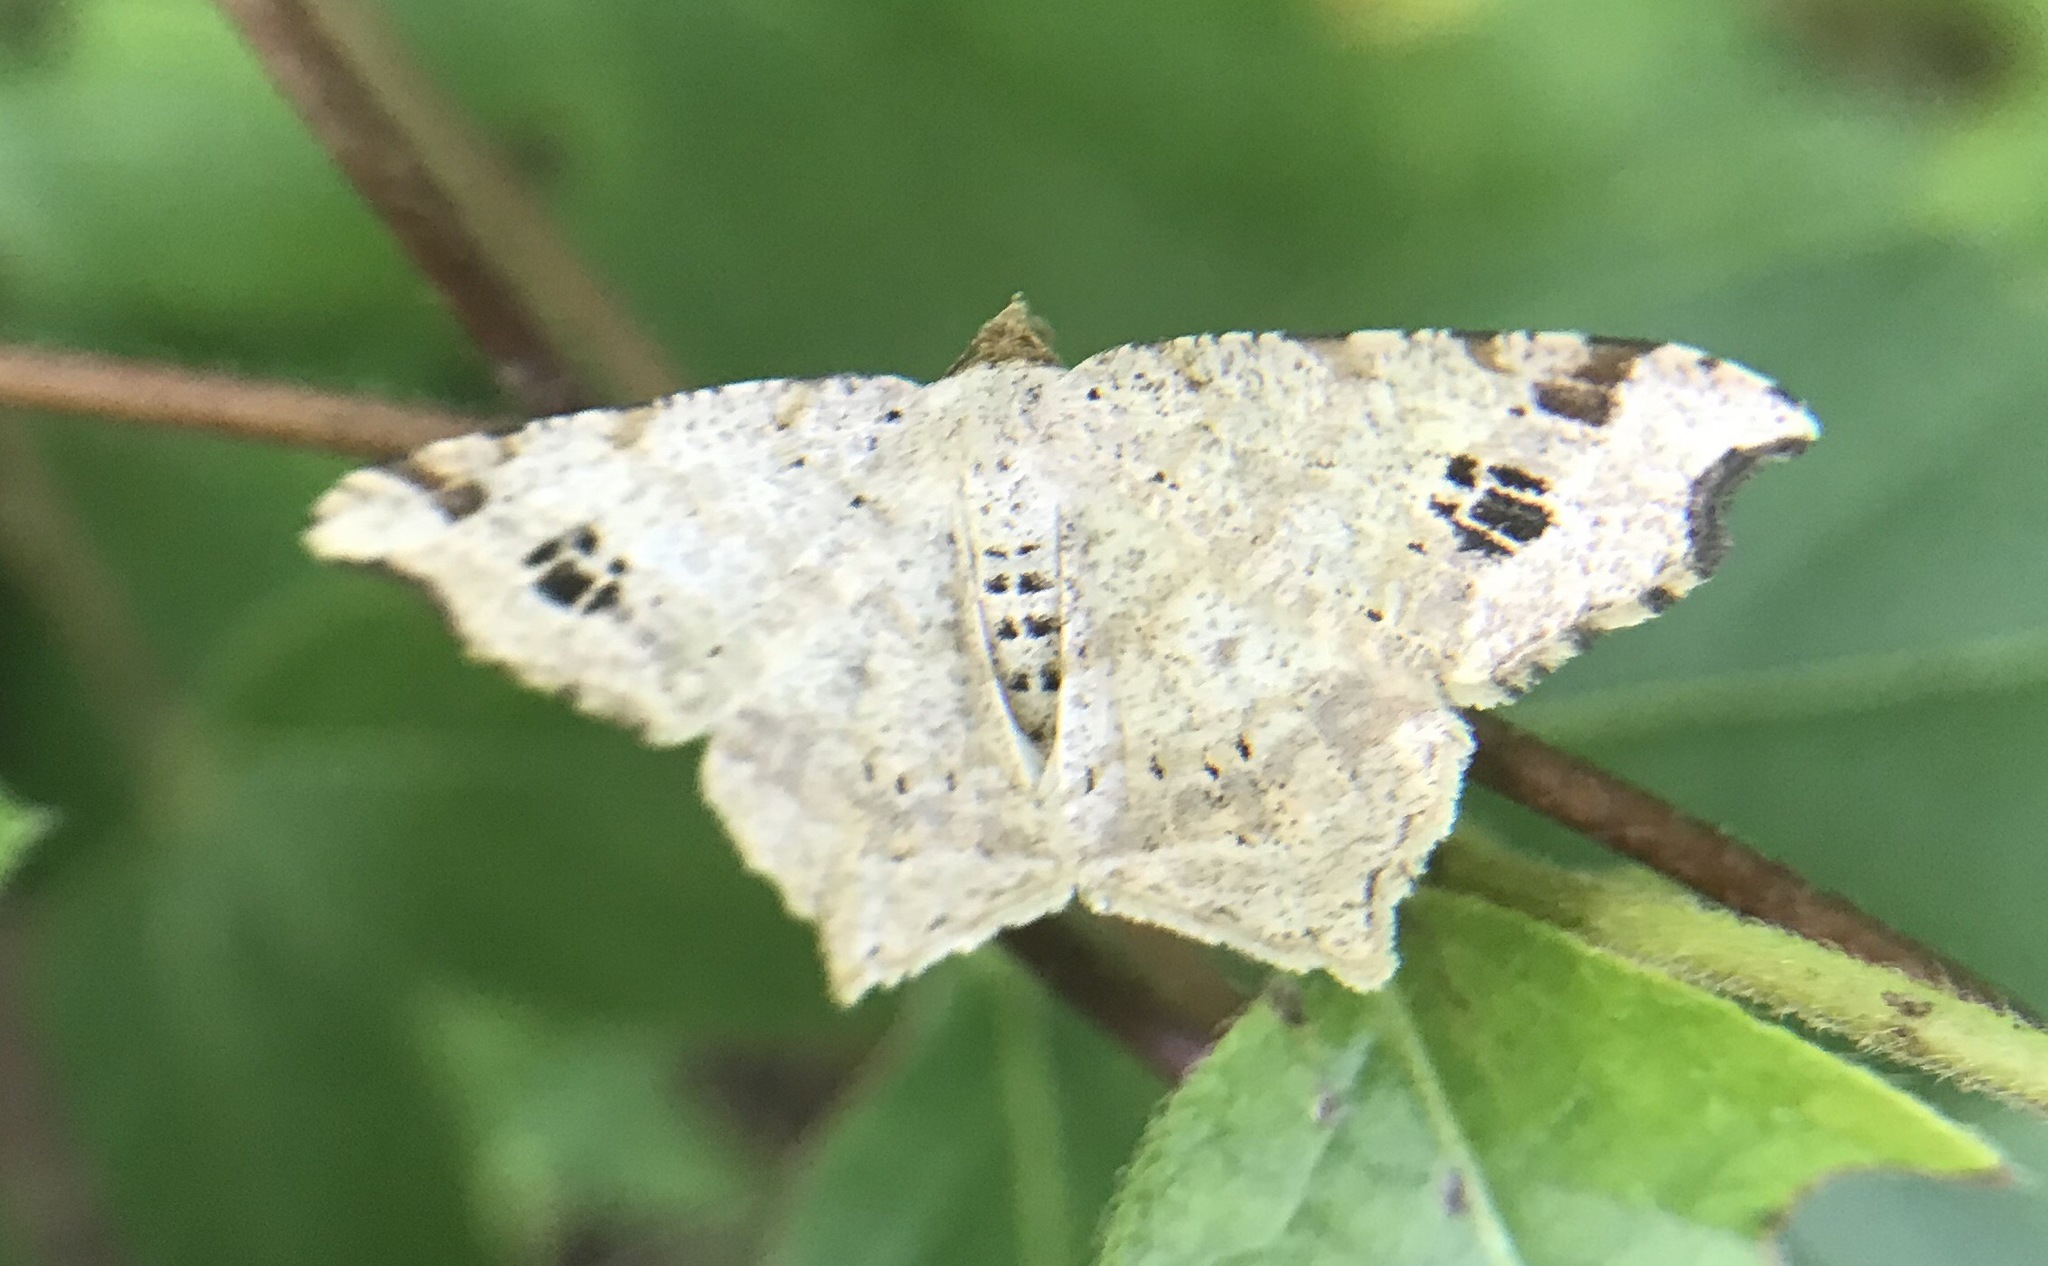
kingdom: Animalia
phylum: Arthropoda
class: Insecta
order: Lepidoptera
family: Geometridae
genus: Macaria
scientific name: Macaria aemulataria
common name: Common angle
